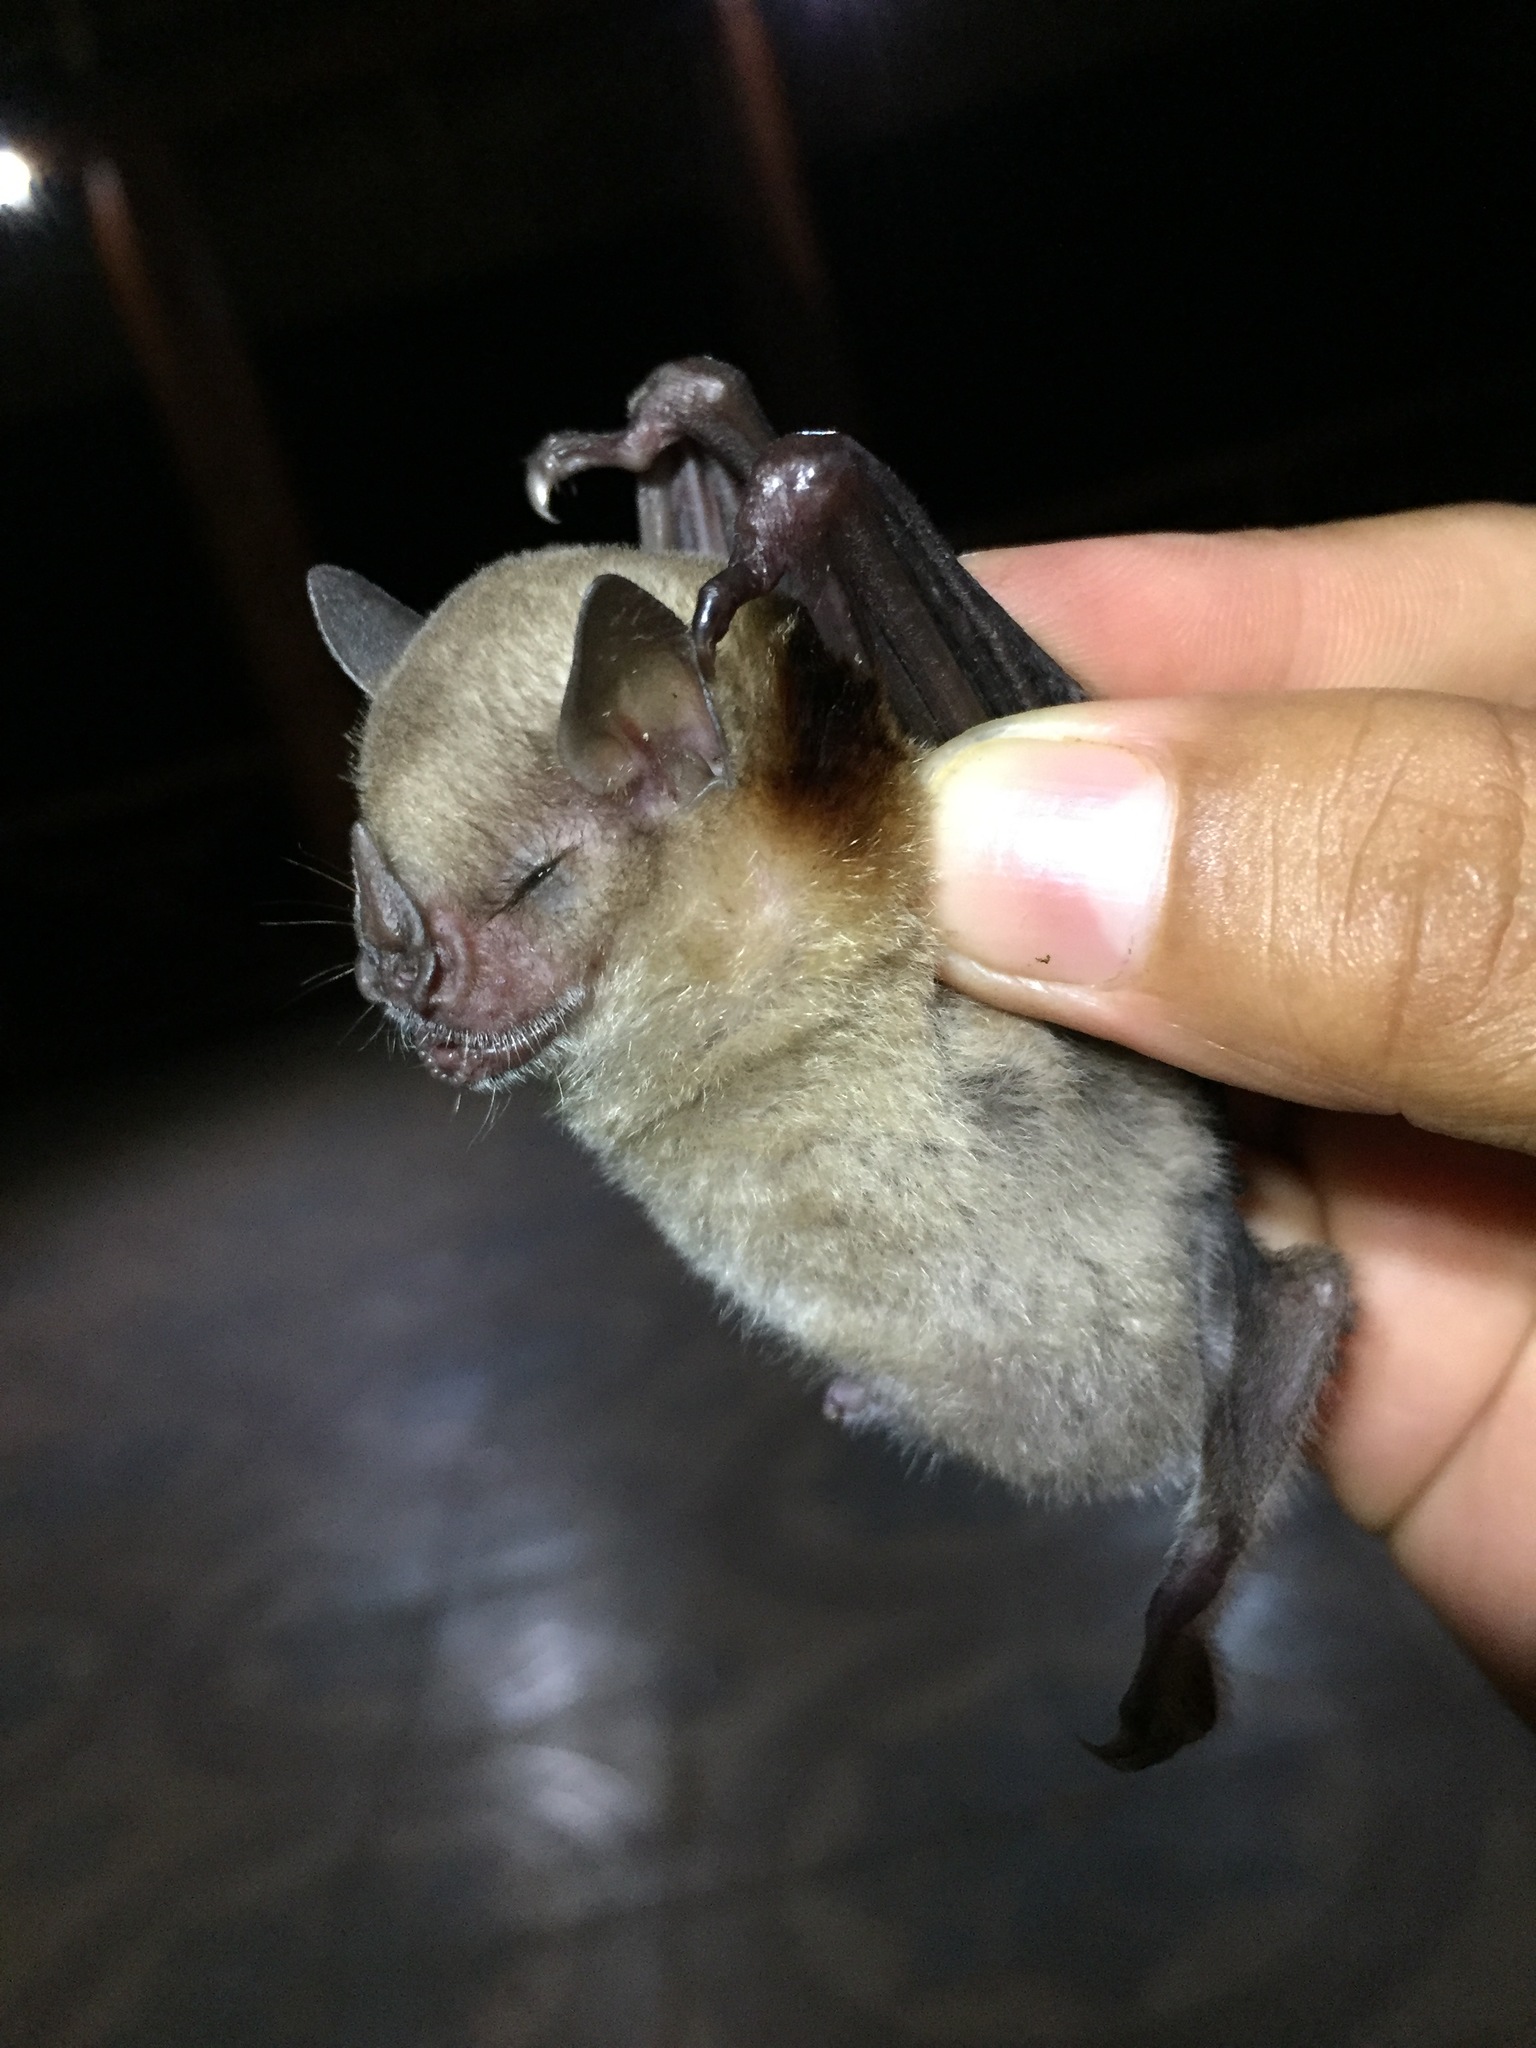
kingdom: Animalia
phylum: Chordata
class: Mammalia
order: Chiroptera
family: Phyllostomidae
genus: Sturnira
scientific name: Sturnira parvidens
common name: Northern yellow-shouldered bat
